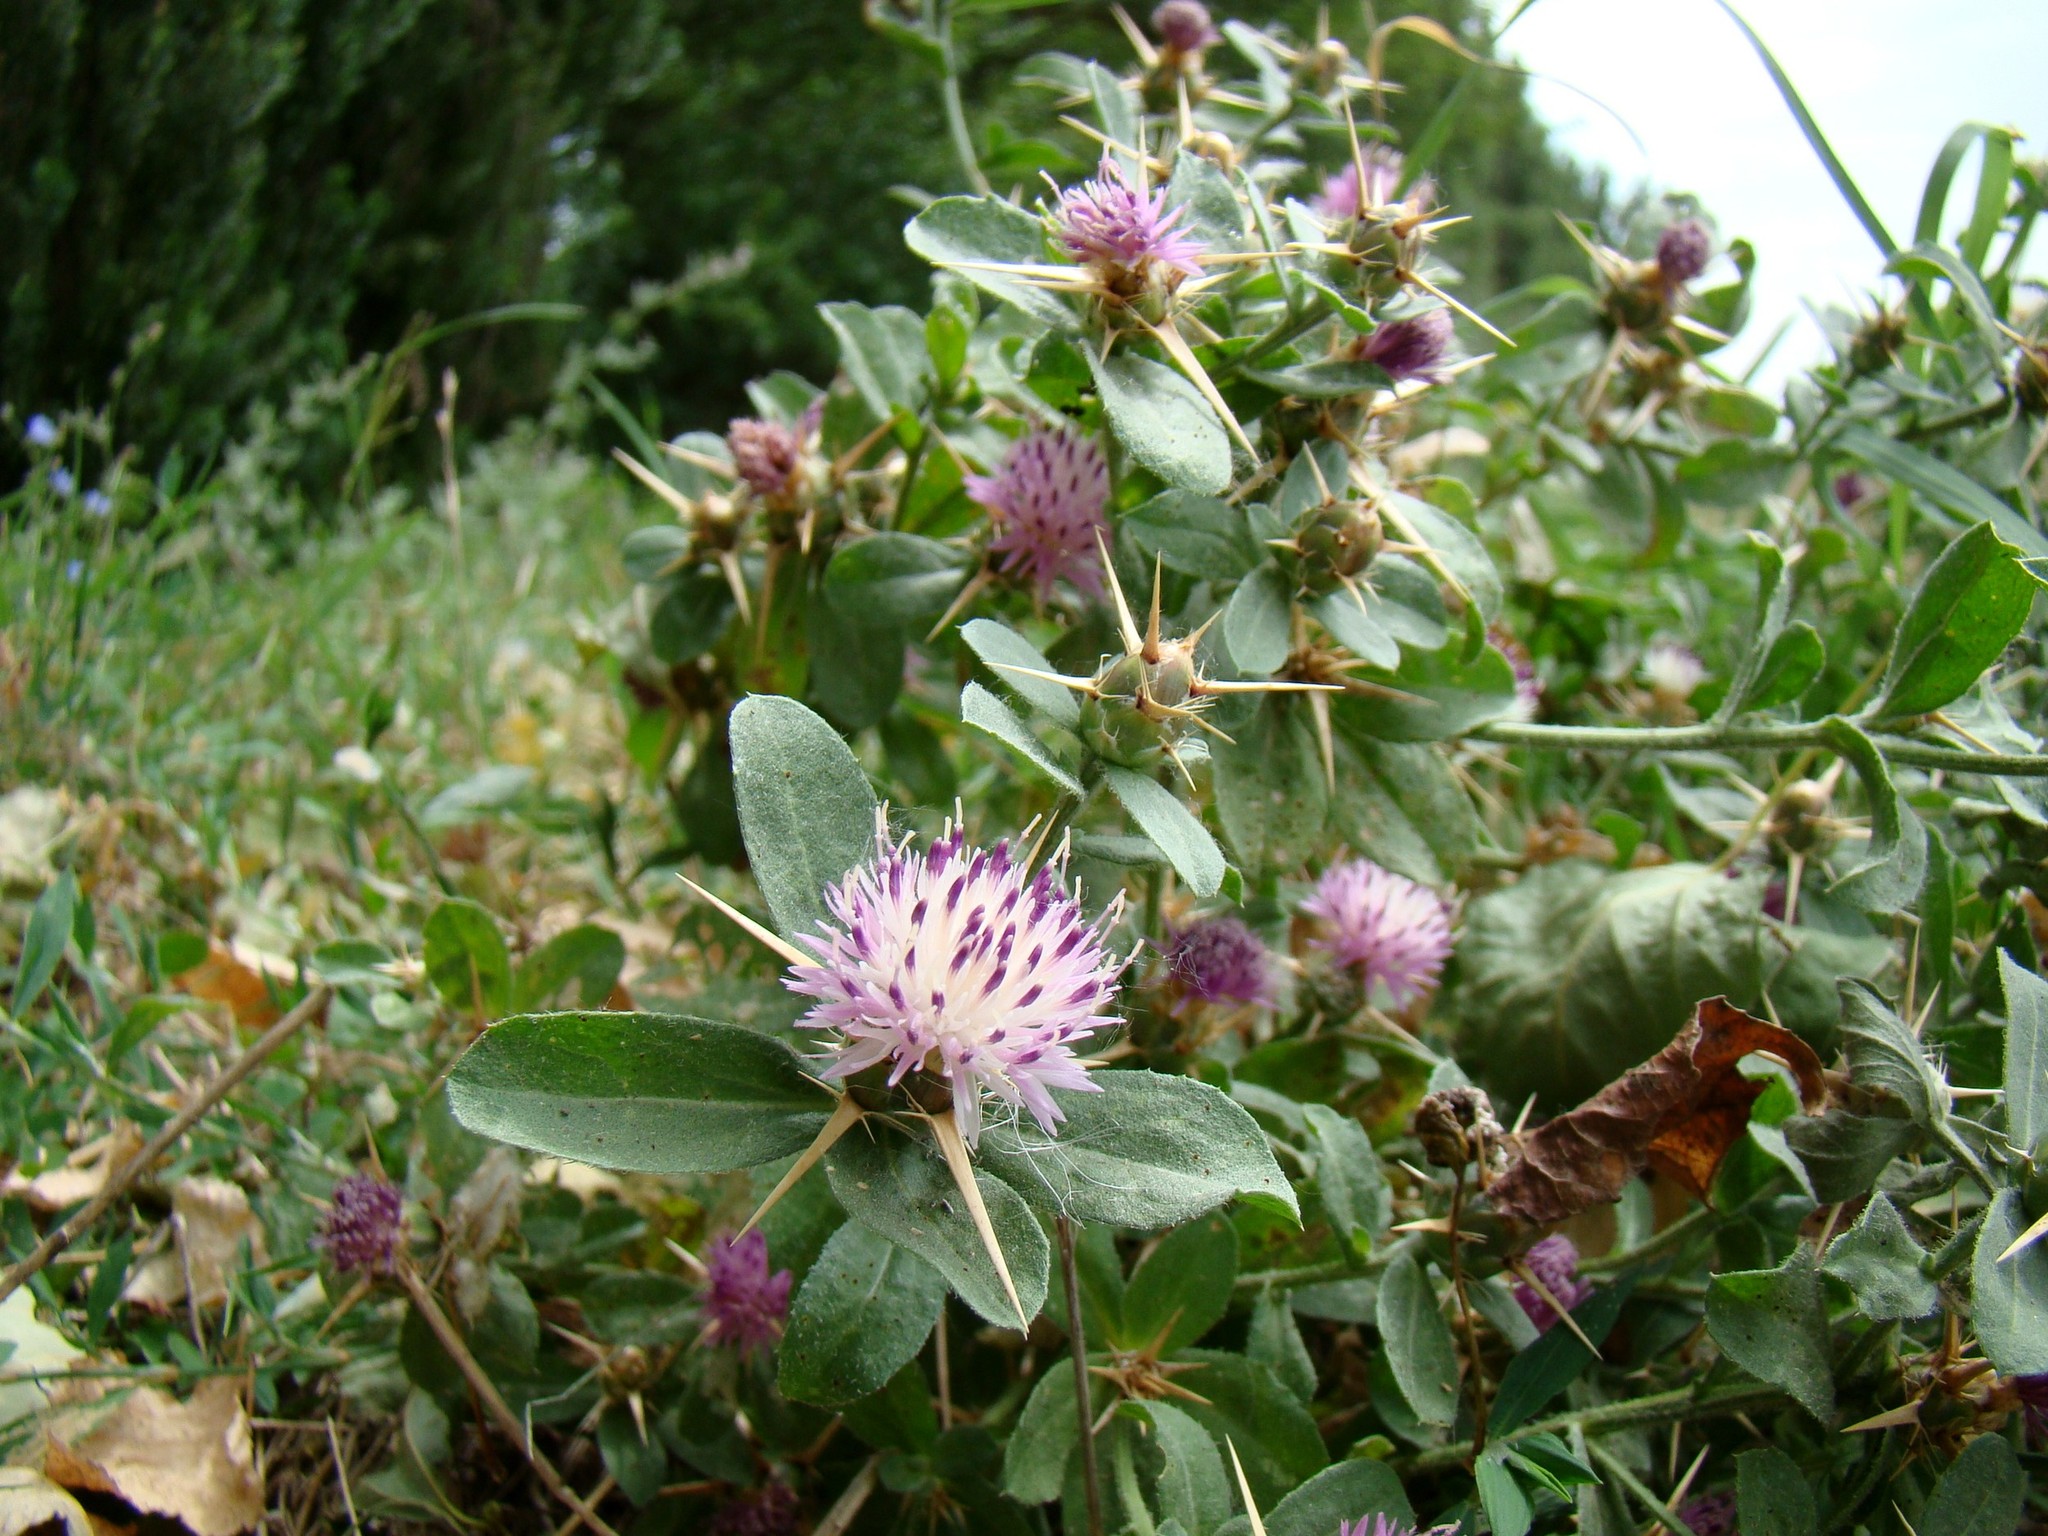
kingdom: Plantae
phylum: Tracheophyta
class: Magnoliopsida
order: Asterales
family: Asteraceae
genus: Centaurea
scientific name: Centaurea iberica
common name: Iberian knapweed
